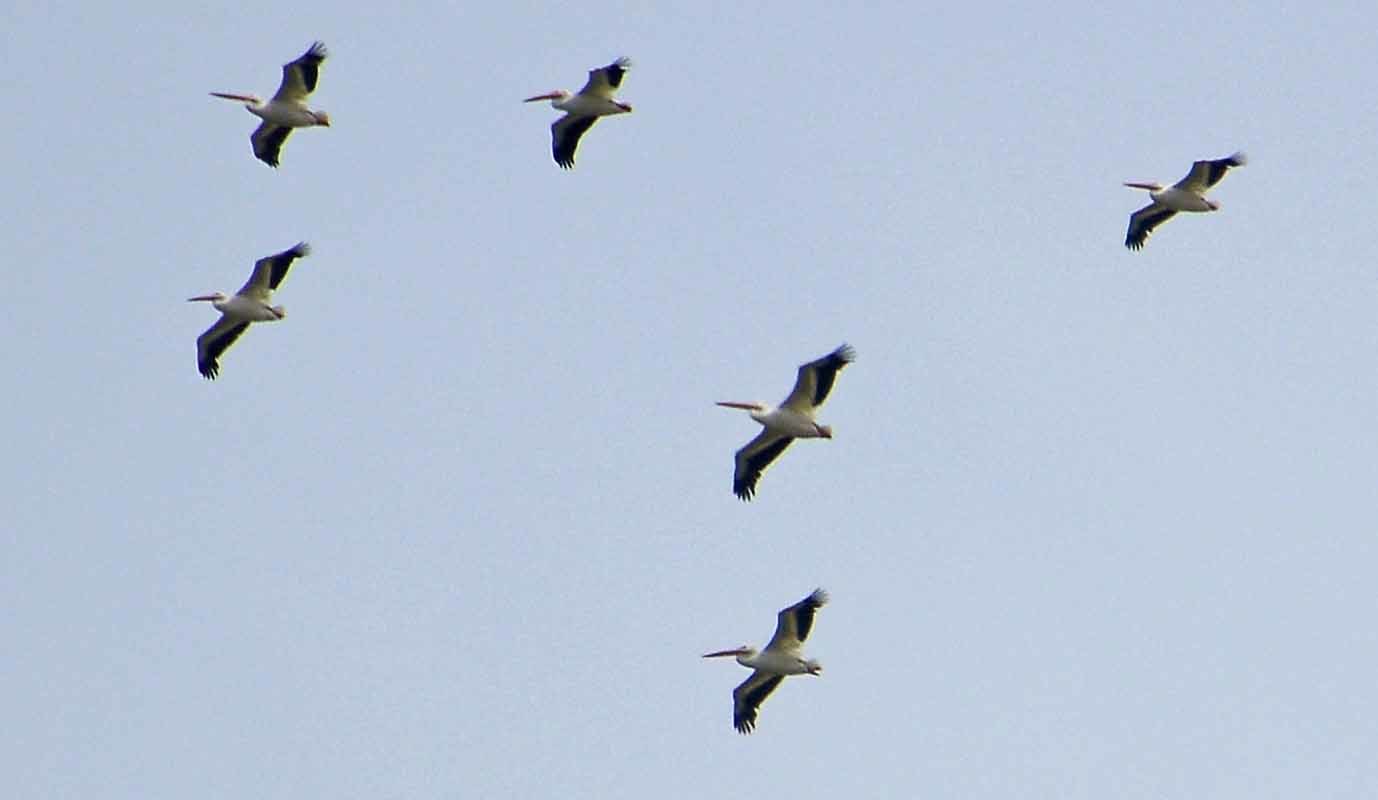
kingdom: Animalia
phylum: Chordata
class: Aves
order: Pelecaniformes
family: Pelecanidae
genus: Pelecanus
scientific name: Pelecanus erythrorhynchos
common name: American white pelican
